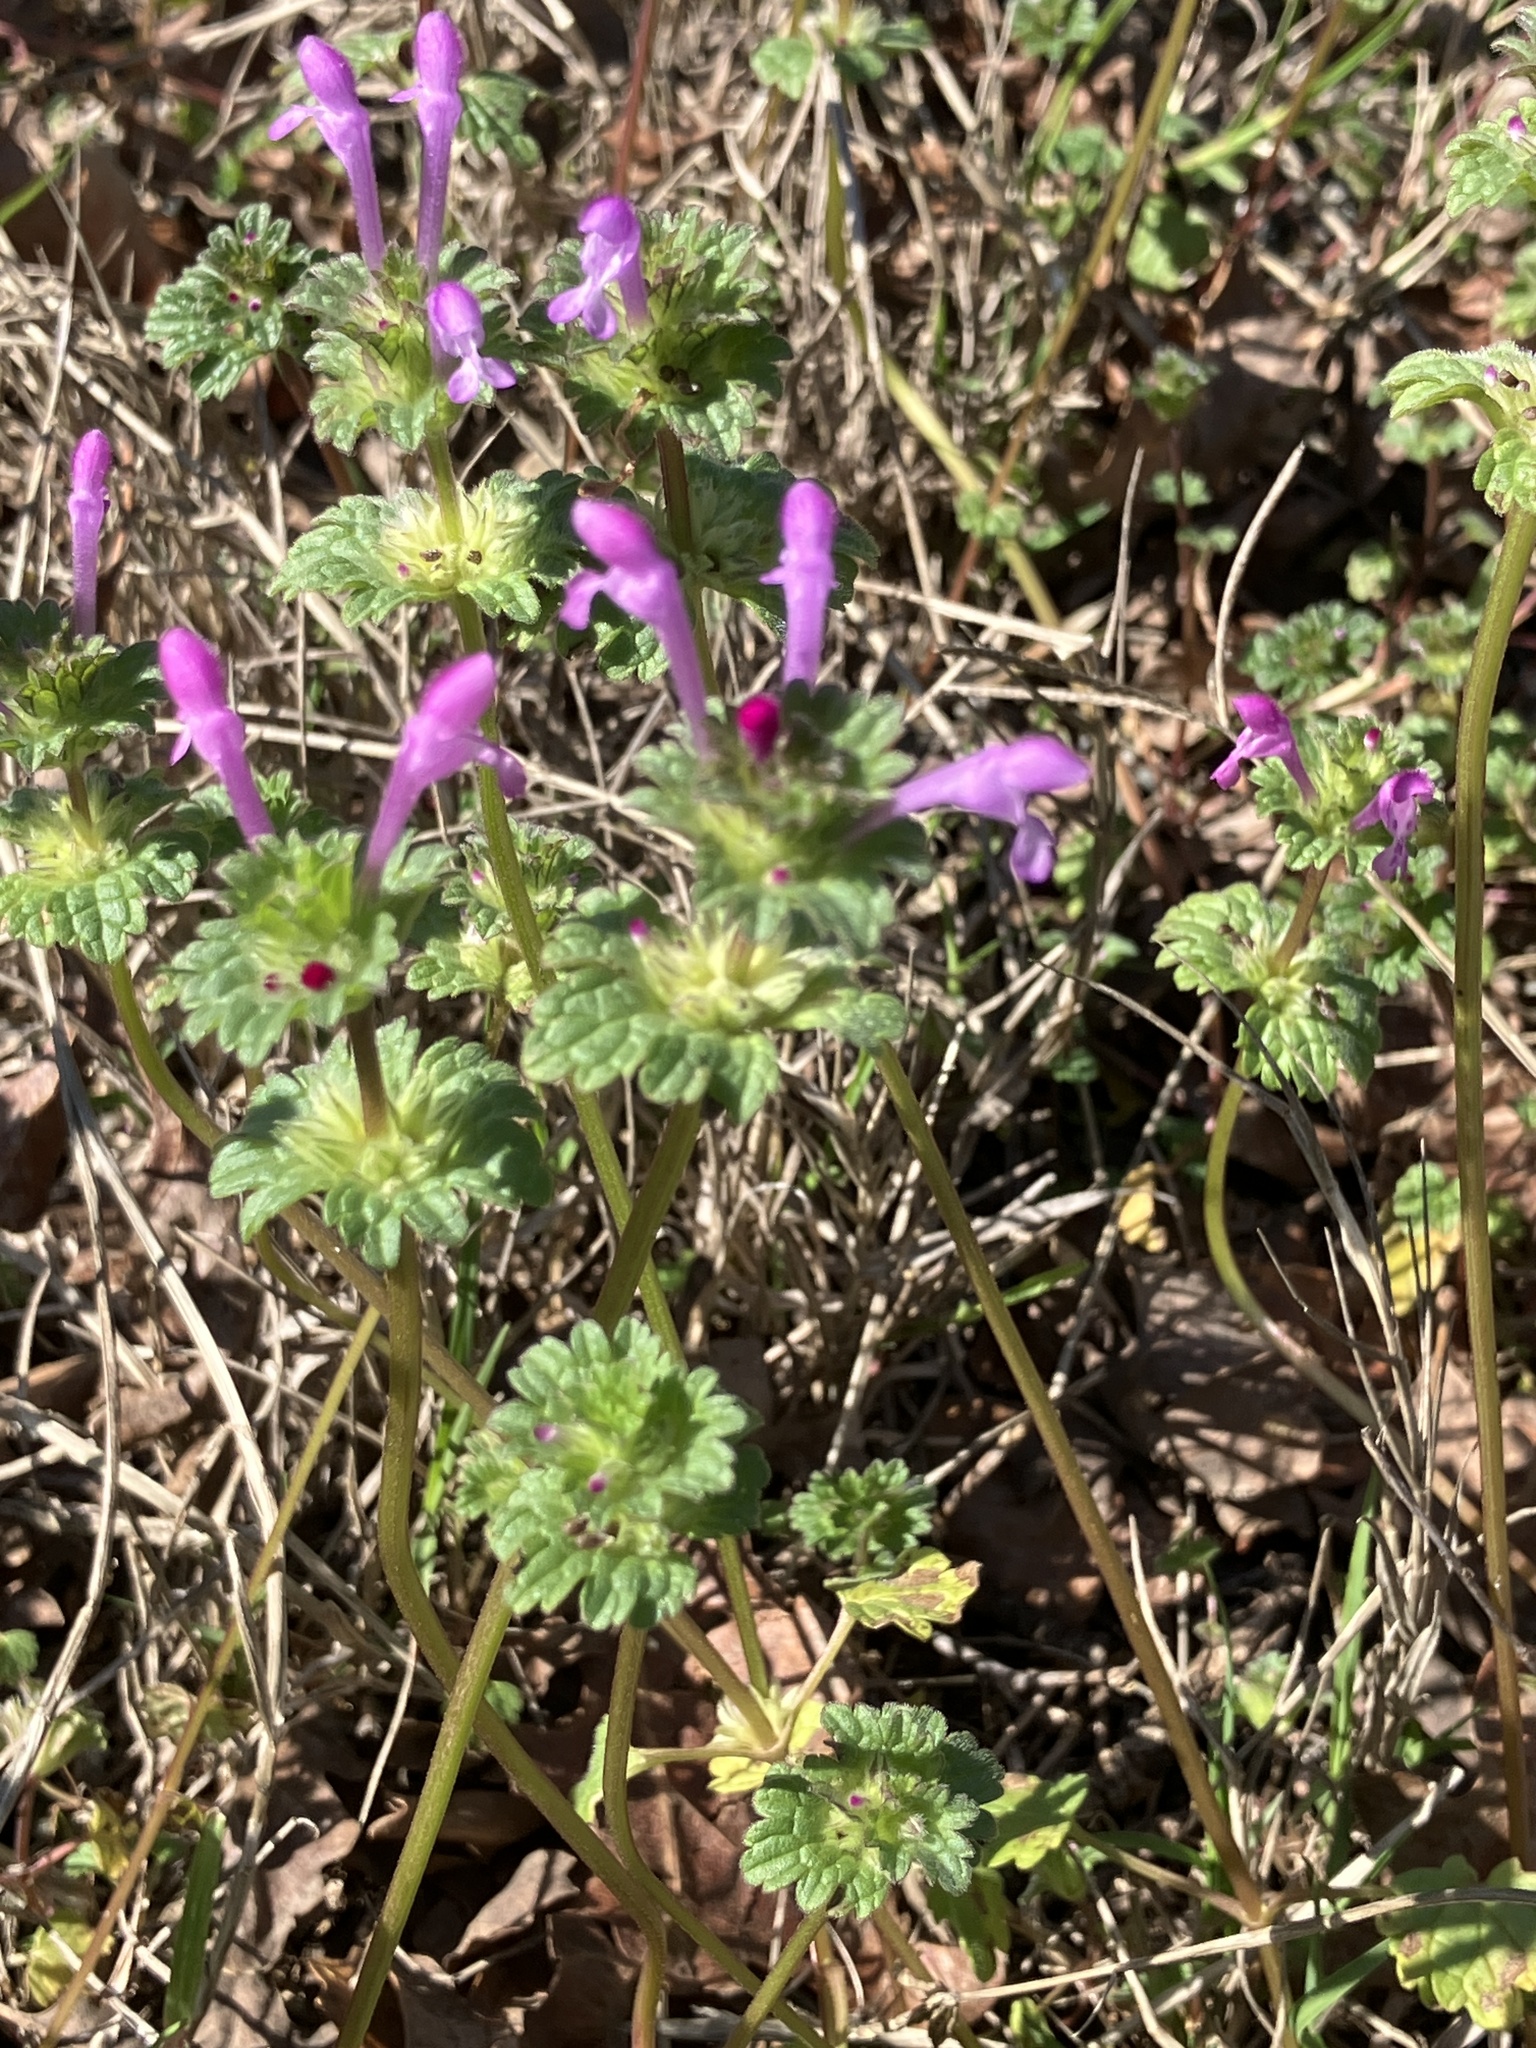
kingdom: Plantae
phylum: Tracheophyta
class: Magnoliopsida
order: Lamiales
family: Lamiaceae
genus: Lamium
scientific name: Lamium amplexicaule
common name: Henbit dead-nettle
